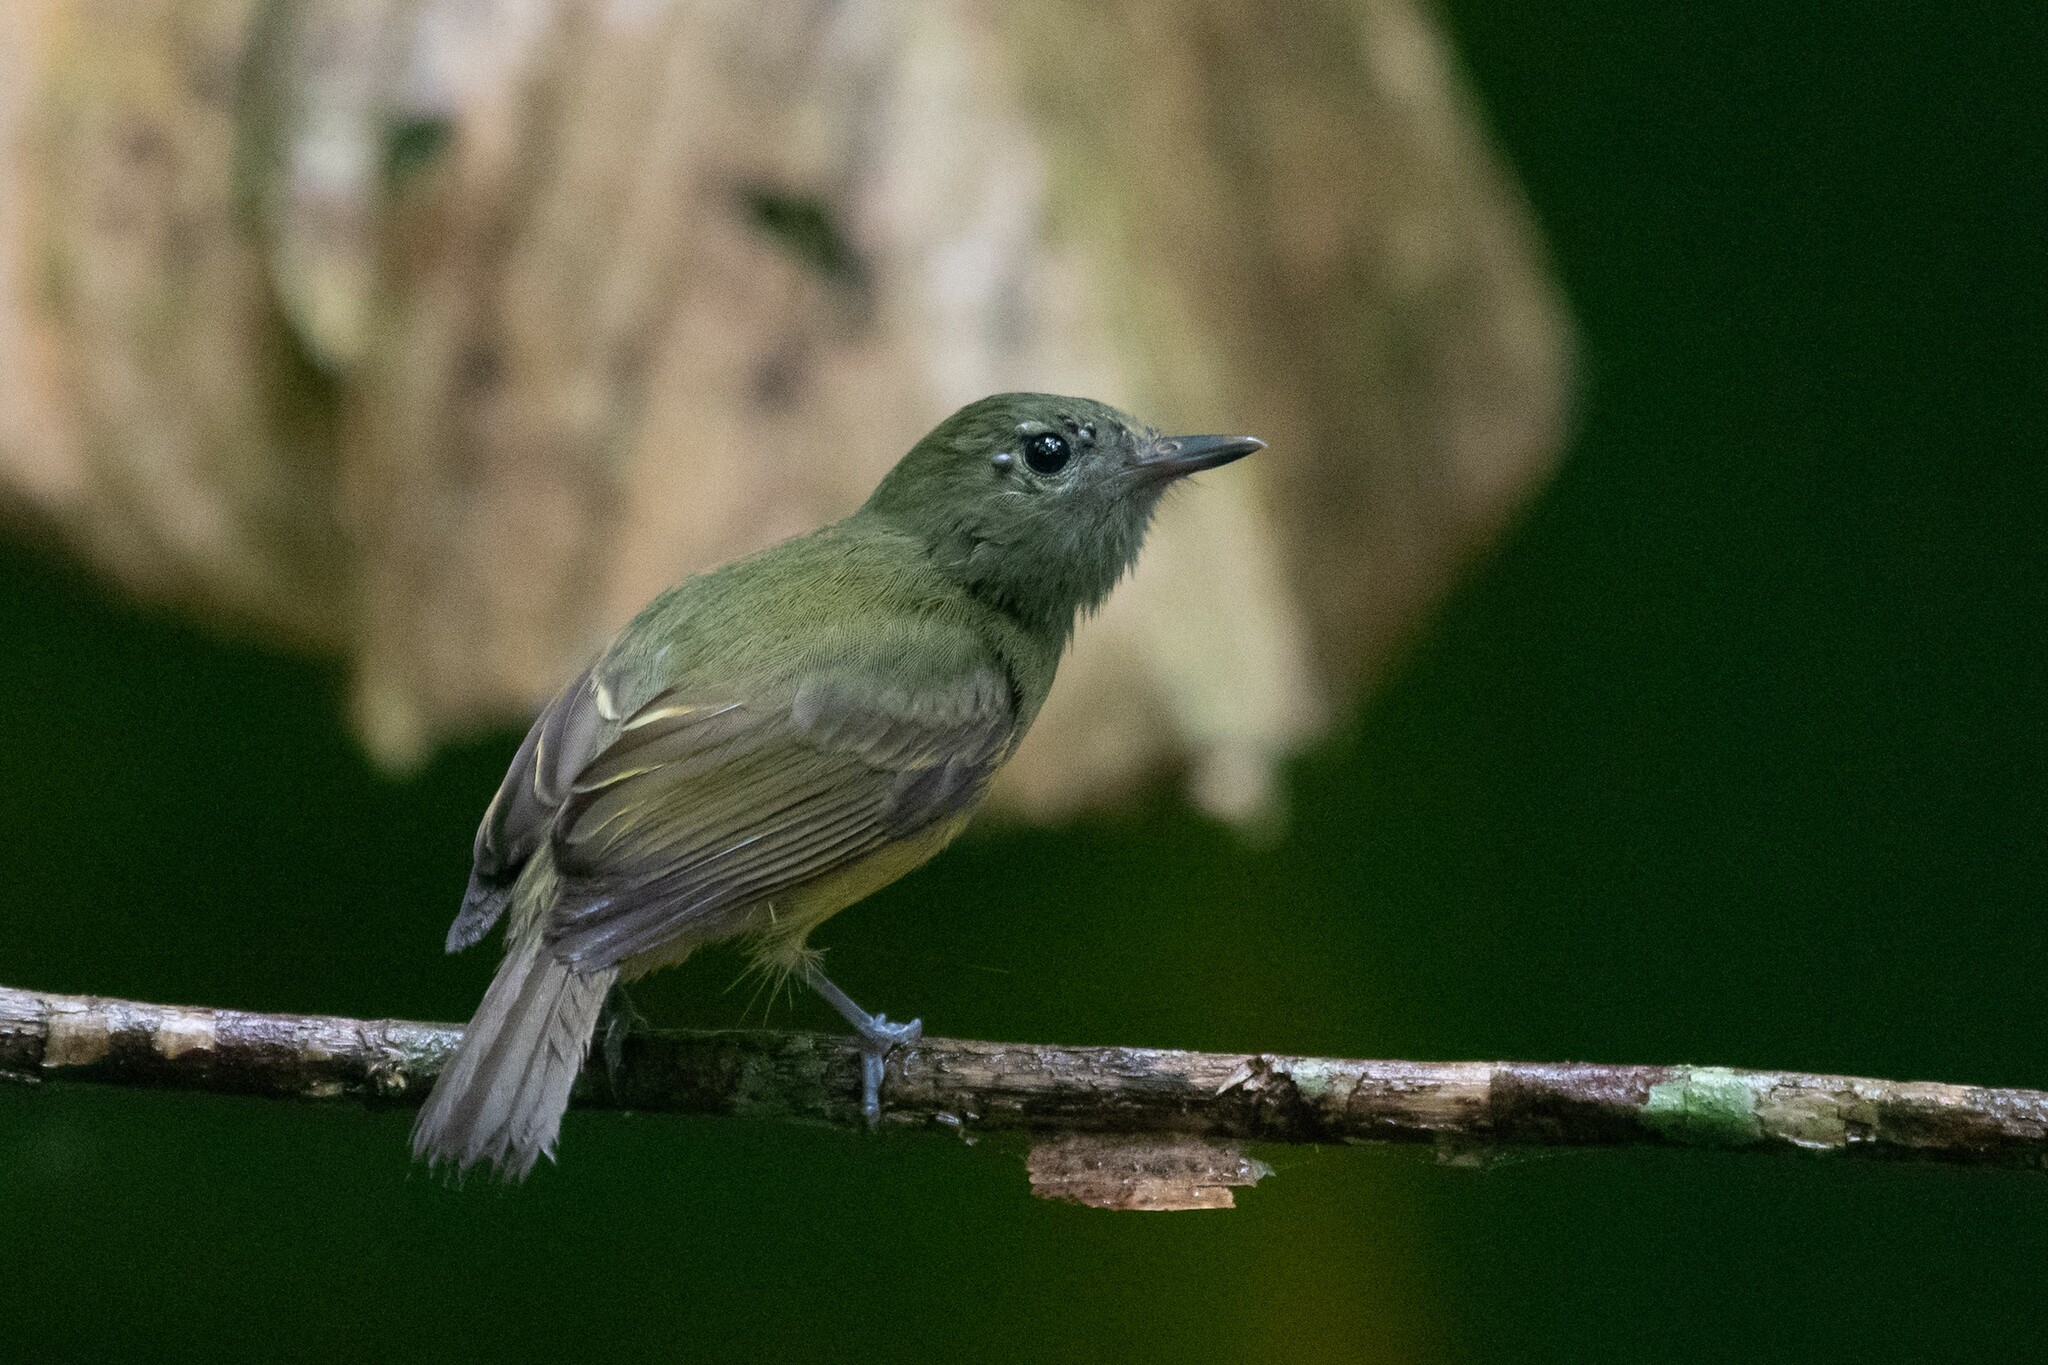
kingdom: Animalia
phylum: Chordata
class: Aves
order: Passeriformes
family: Tyrannidae
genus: Mionectes
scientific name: Mionectes oleagineus
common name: Ochre-bellied flycatcher
